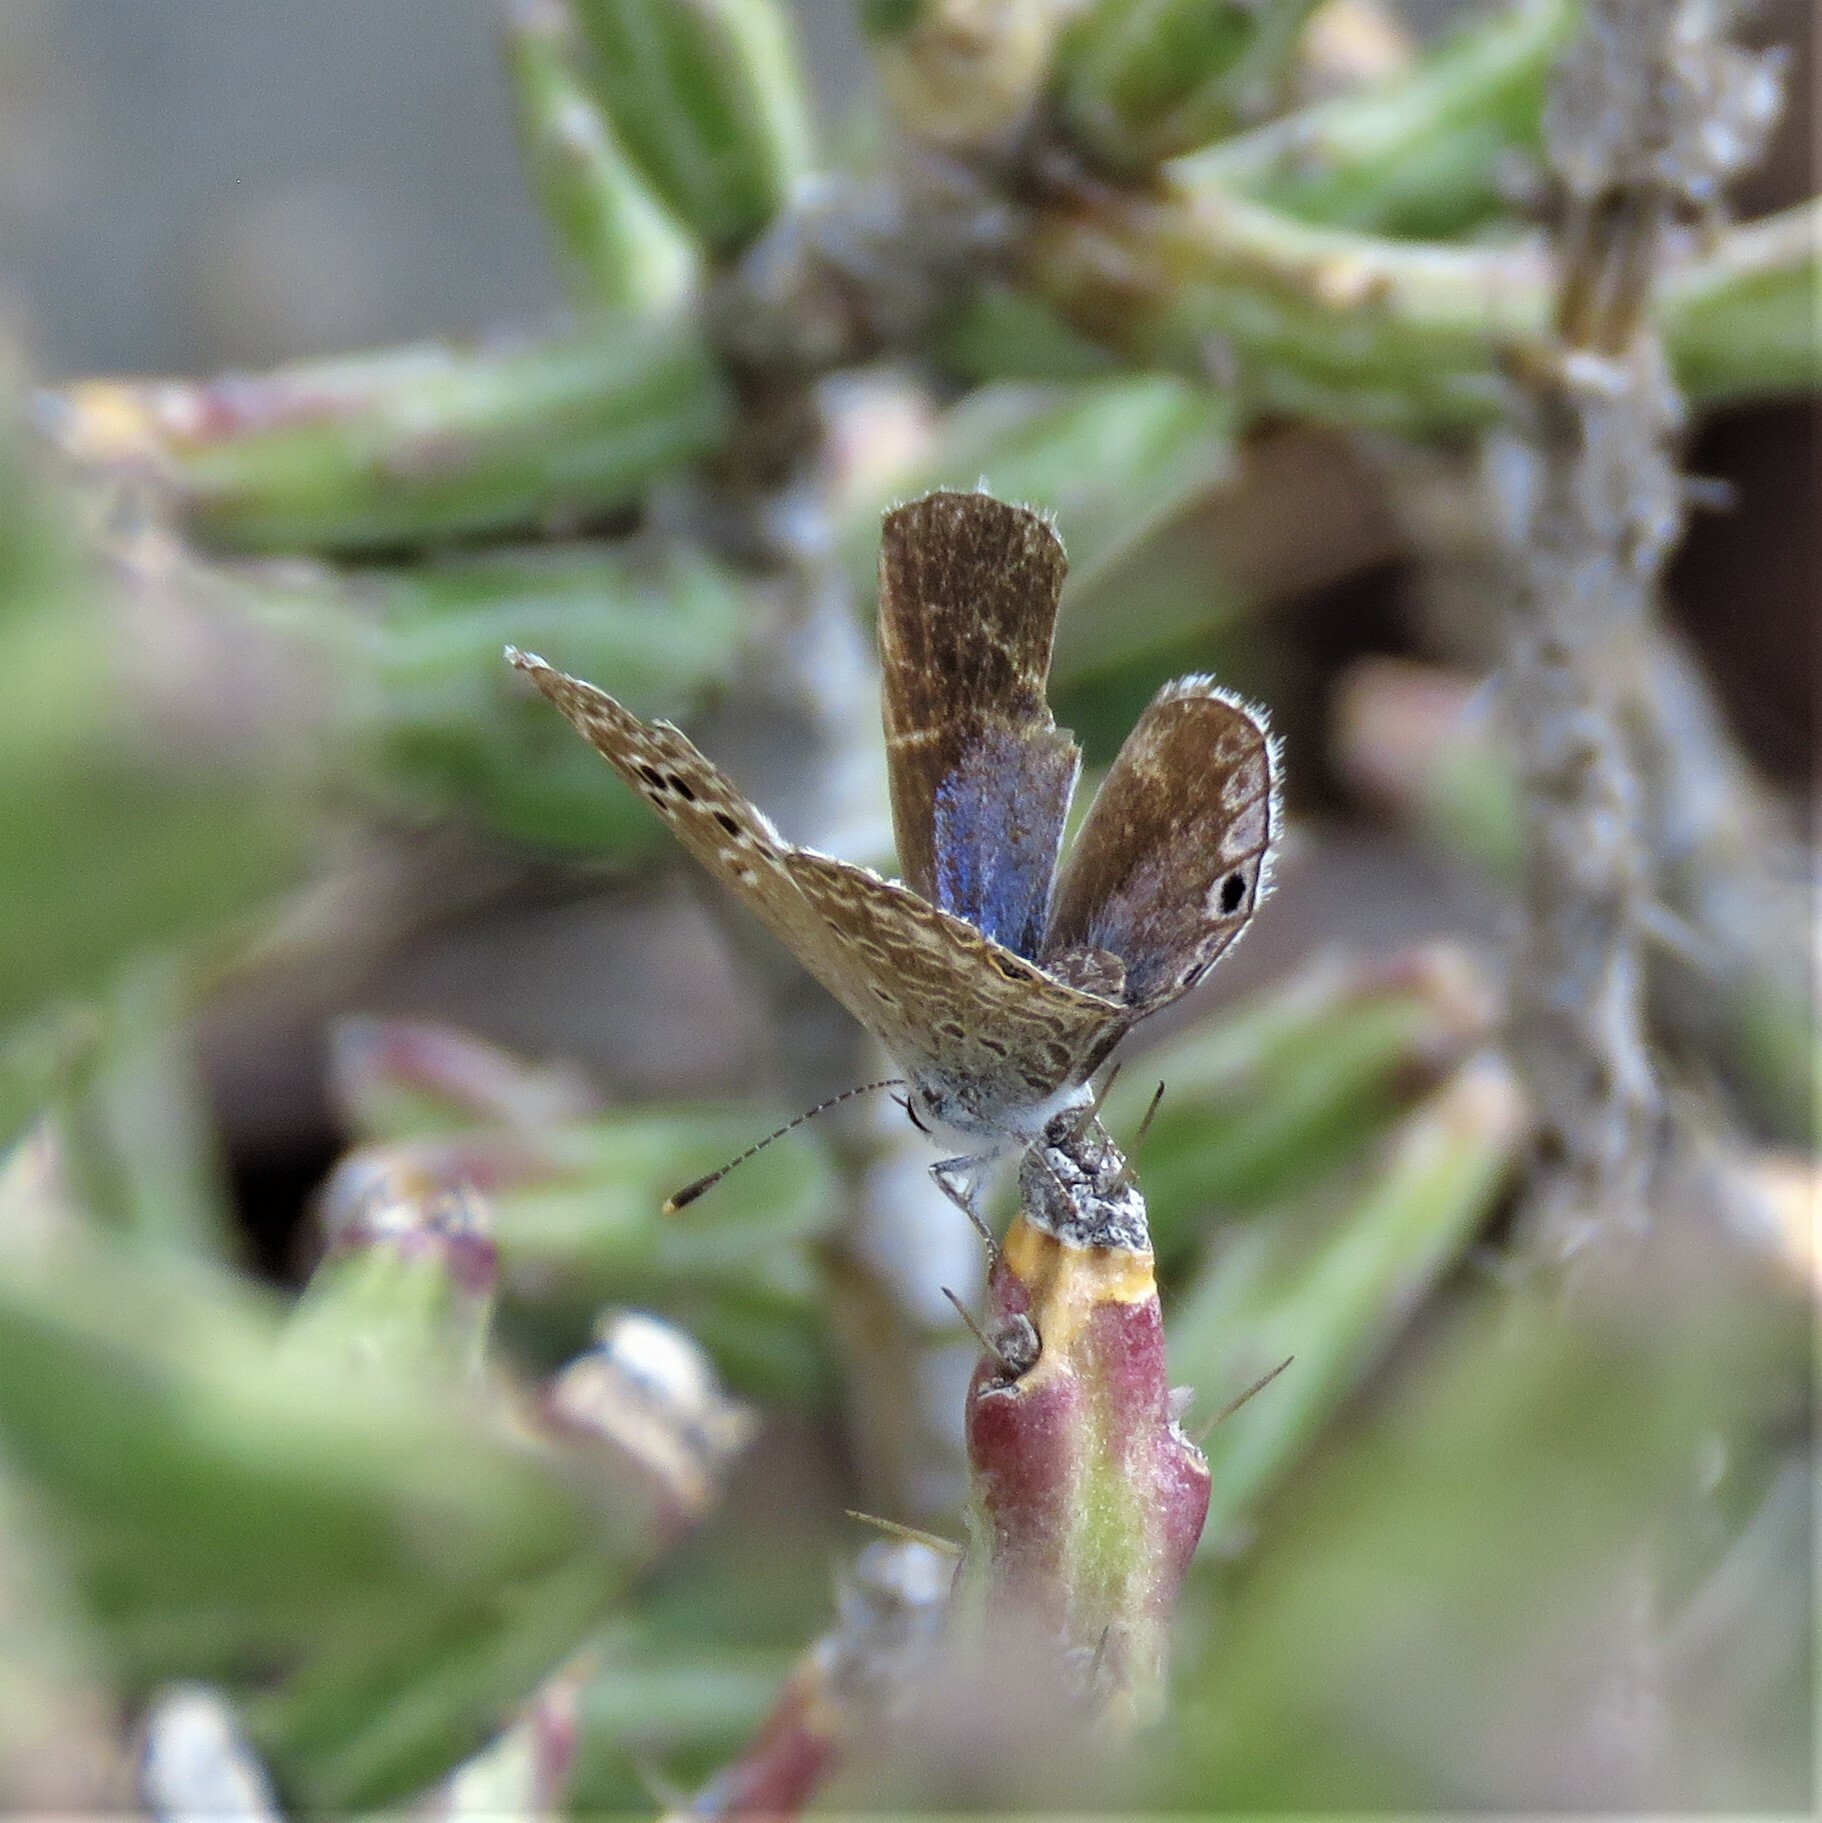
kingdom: Animalia
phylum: Arthropoda
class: Insecta
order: Lepidoptera
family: Lycaenidae
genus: Echinargus
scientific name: Echinargus isola
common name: Reakirt's blue
